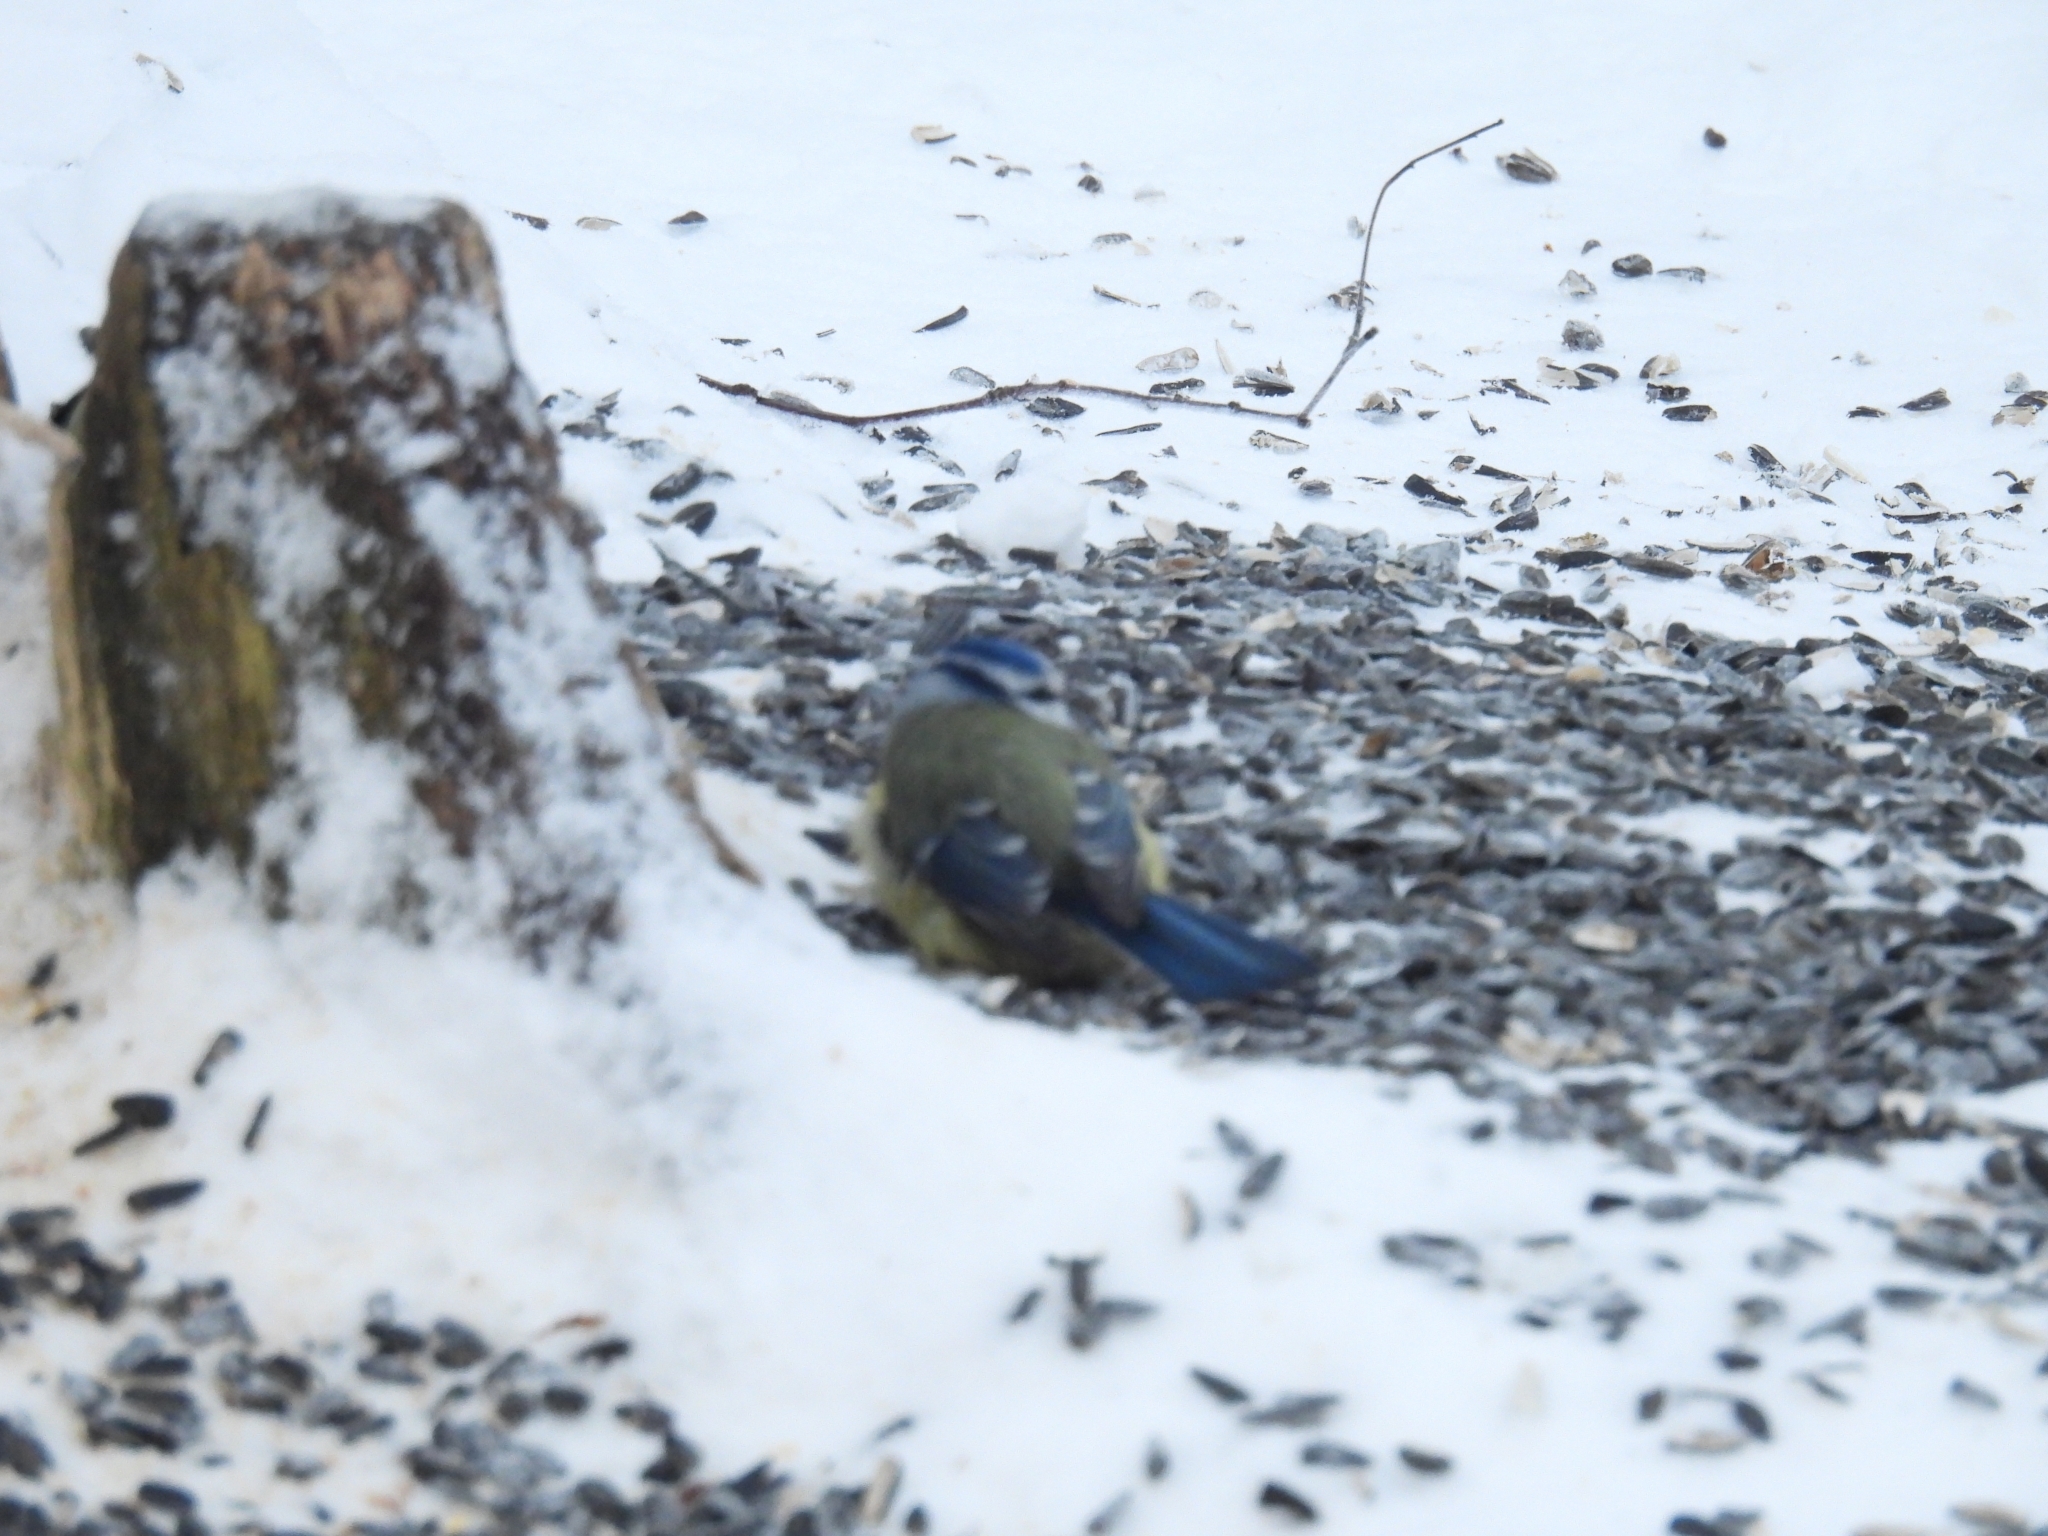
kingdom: Animalia
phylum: Chordata
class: Aves
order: Passeriformes
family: Paridae
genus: Cyanistes
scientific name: Cyanistes caeruleus
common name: Eurasian blue tit
